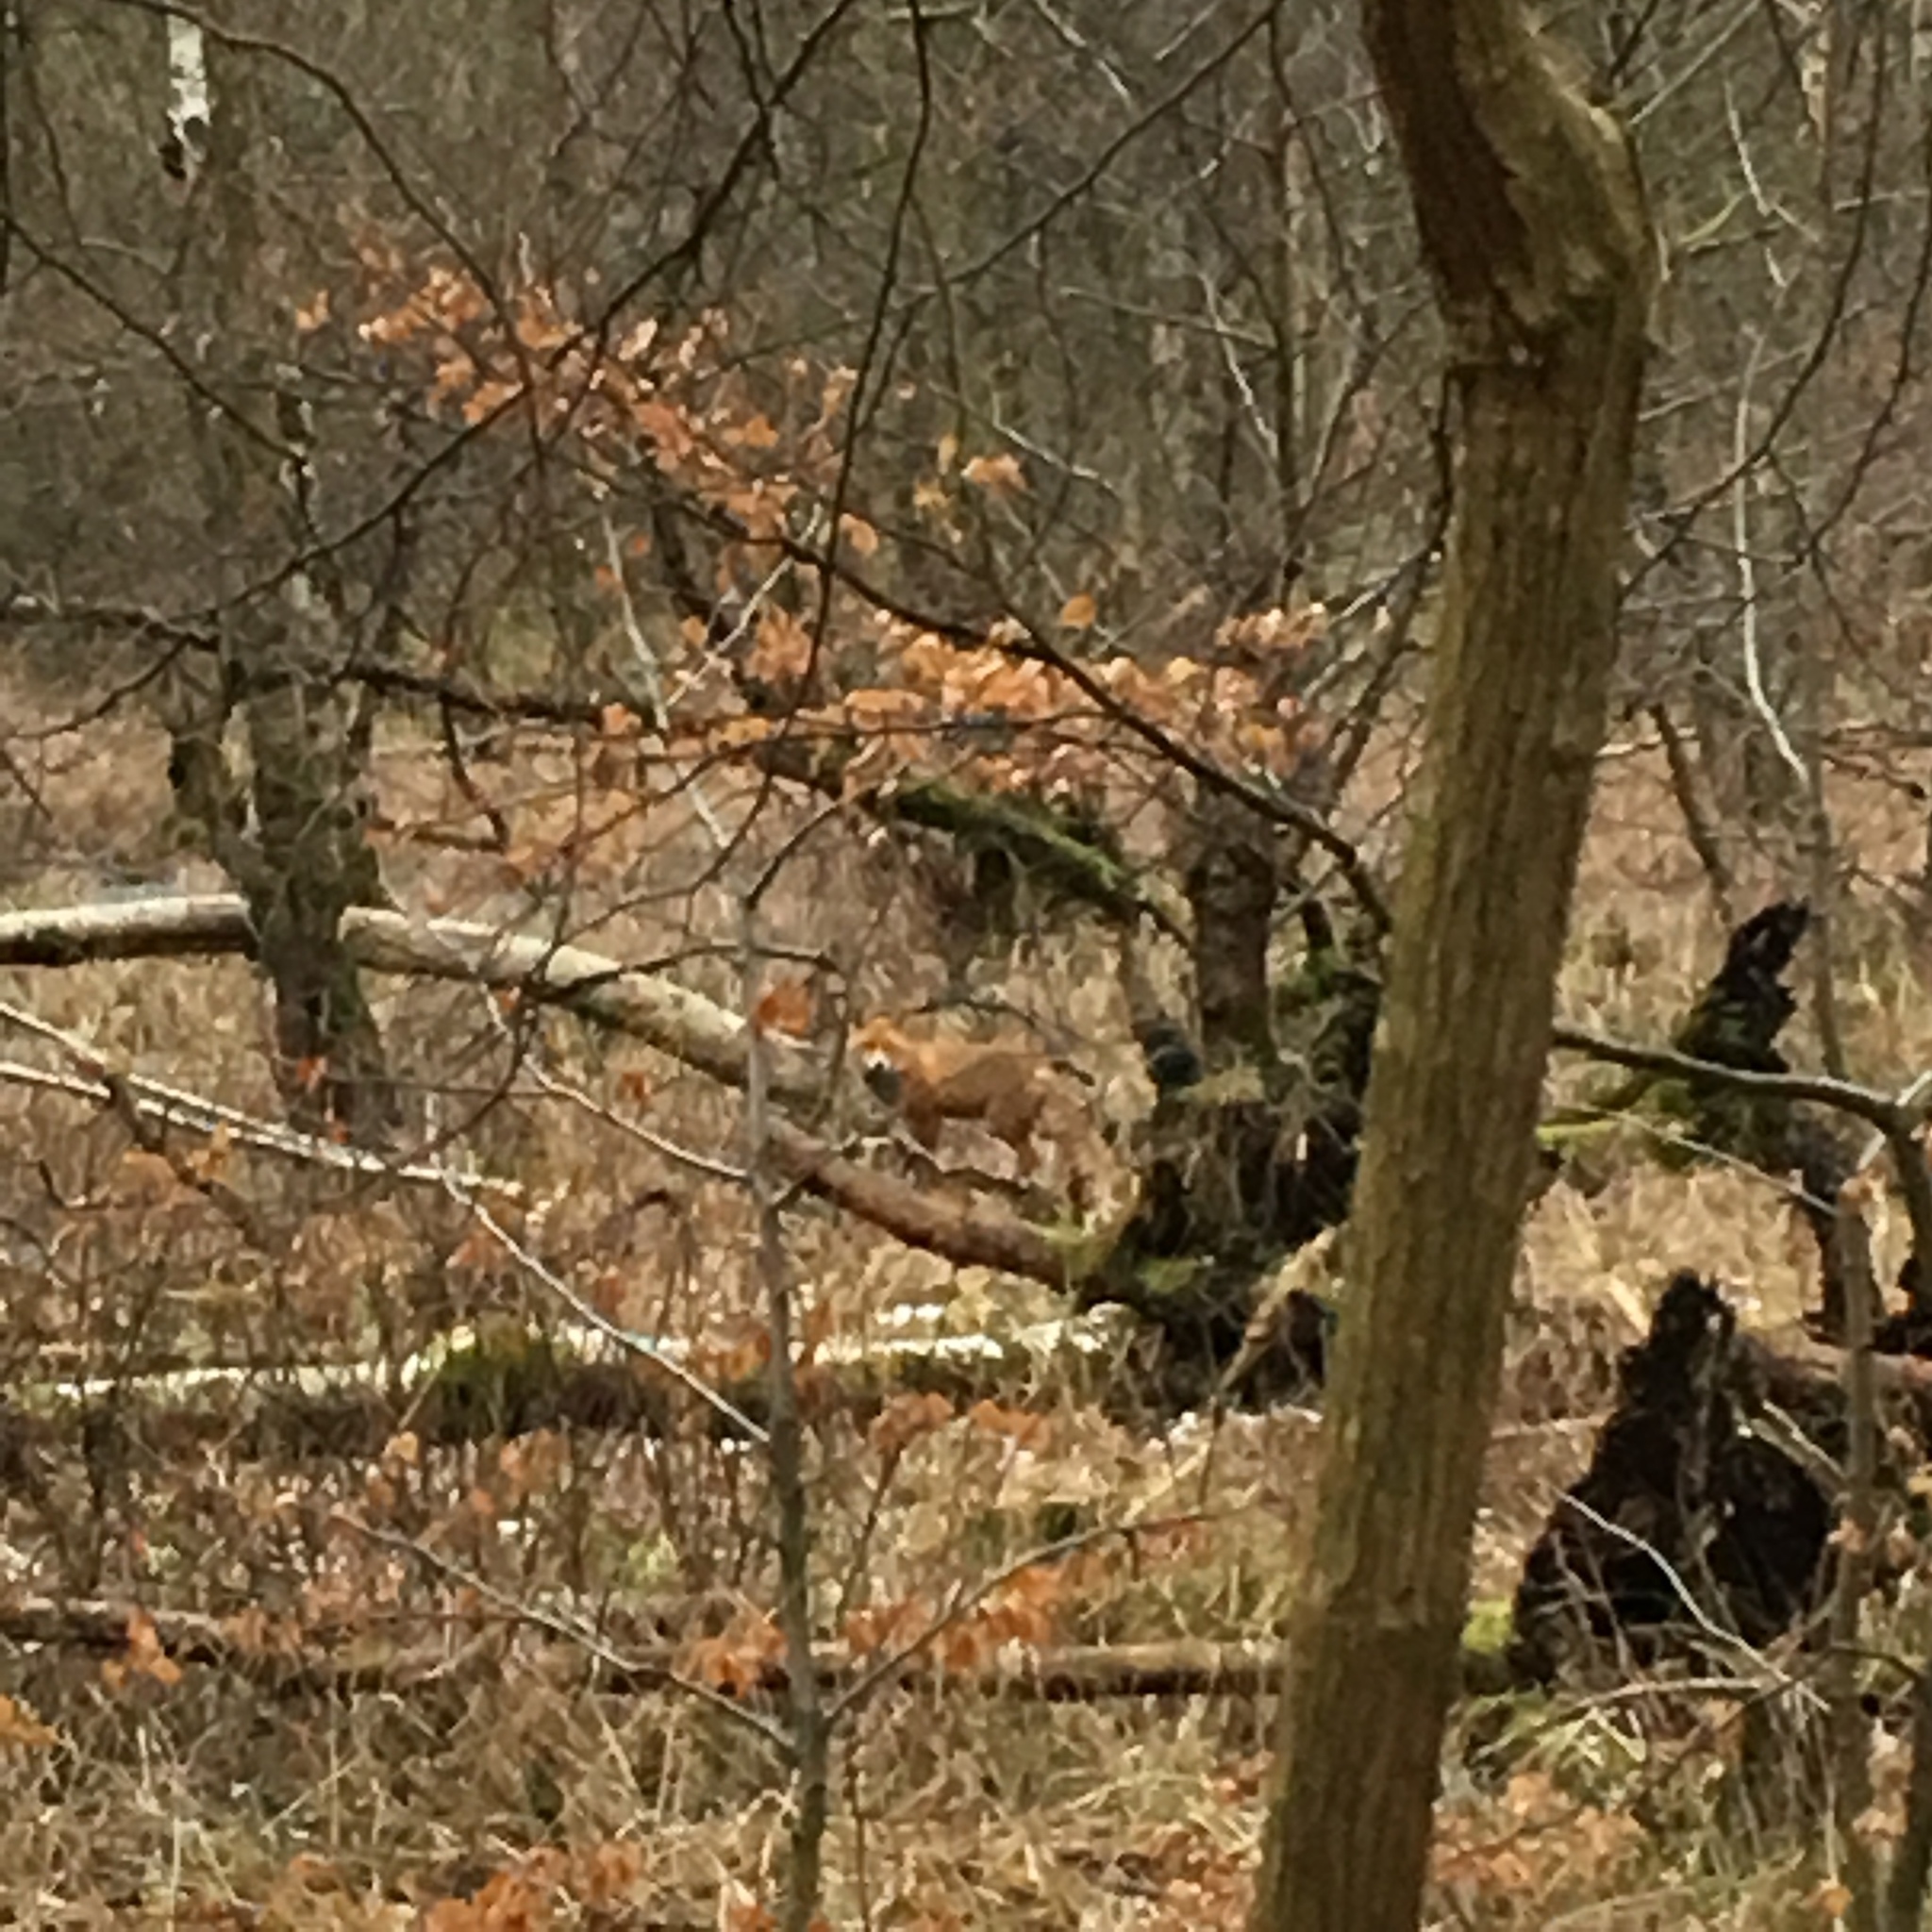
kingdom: Animalia
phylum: Chordata
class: Mammalia
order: Carnivora
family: Canidae
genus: Vulpes
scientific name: Vulpes vulpes
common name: Red fox
